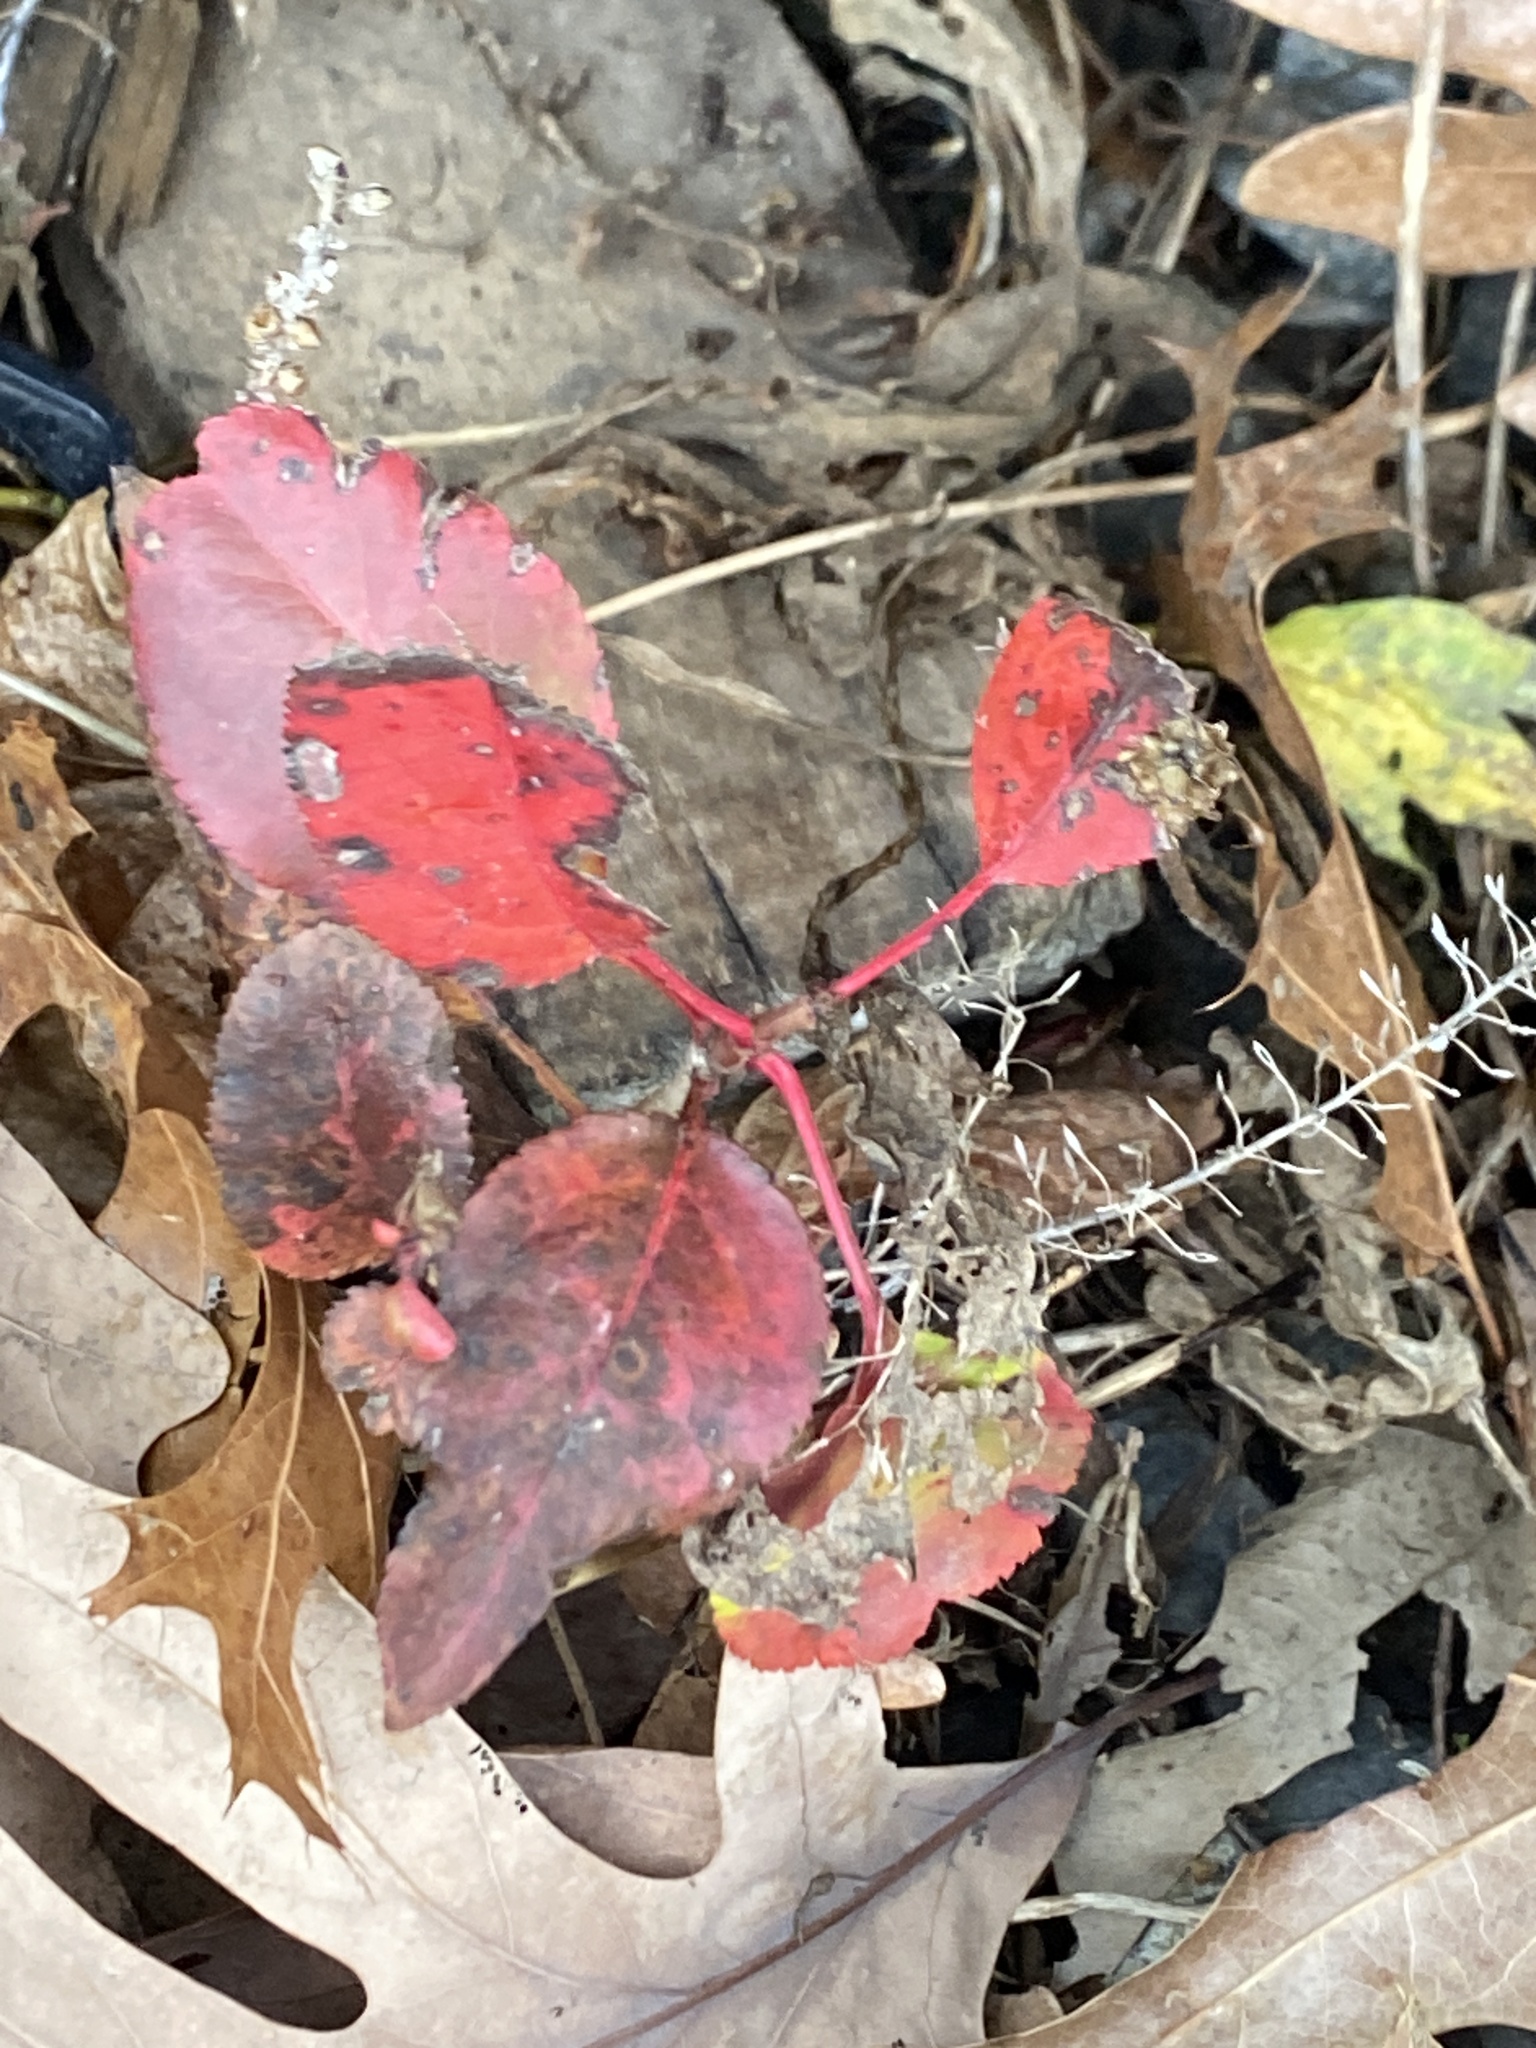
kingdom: Plantae
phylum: Tracheophyta
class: Magnoliopsida
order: Rosales
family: Rosaceae
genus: Pyrus
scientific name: Pyrus calleryana
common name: Callery pear
